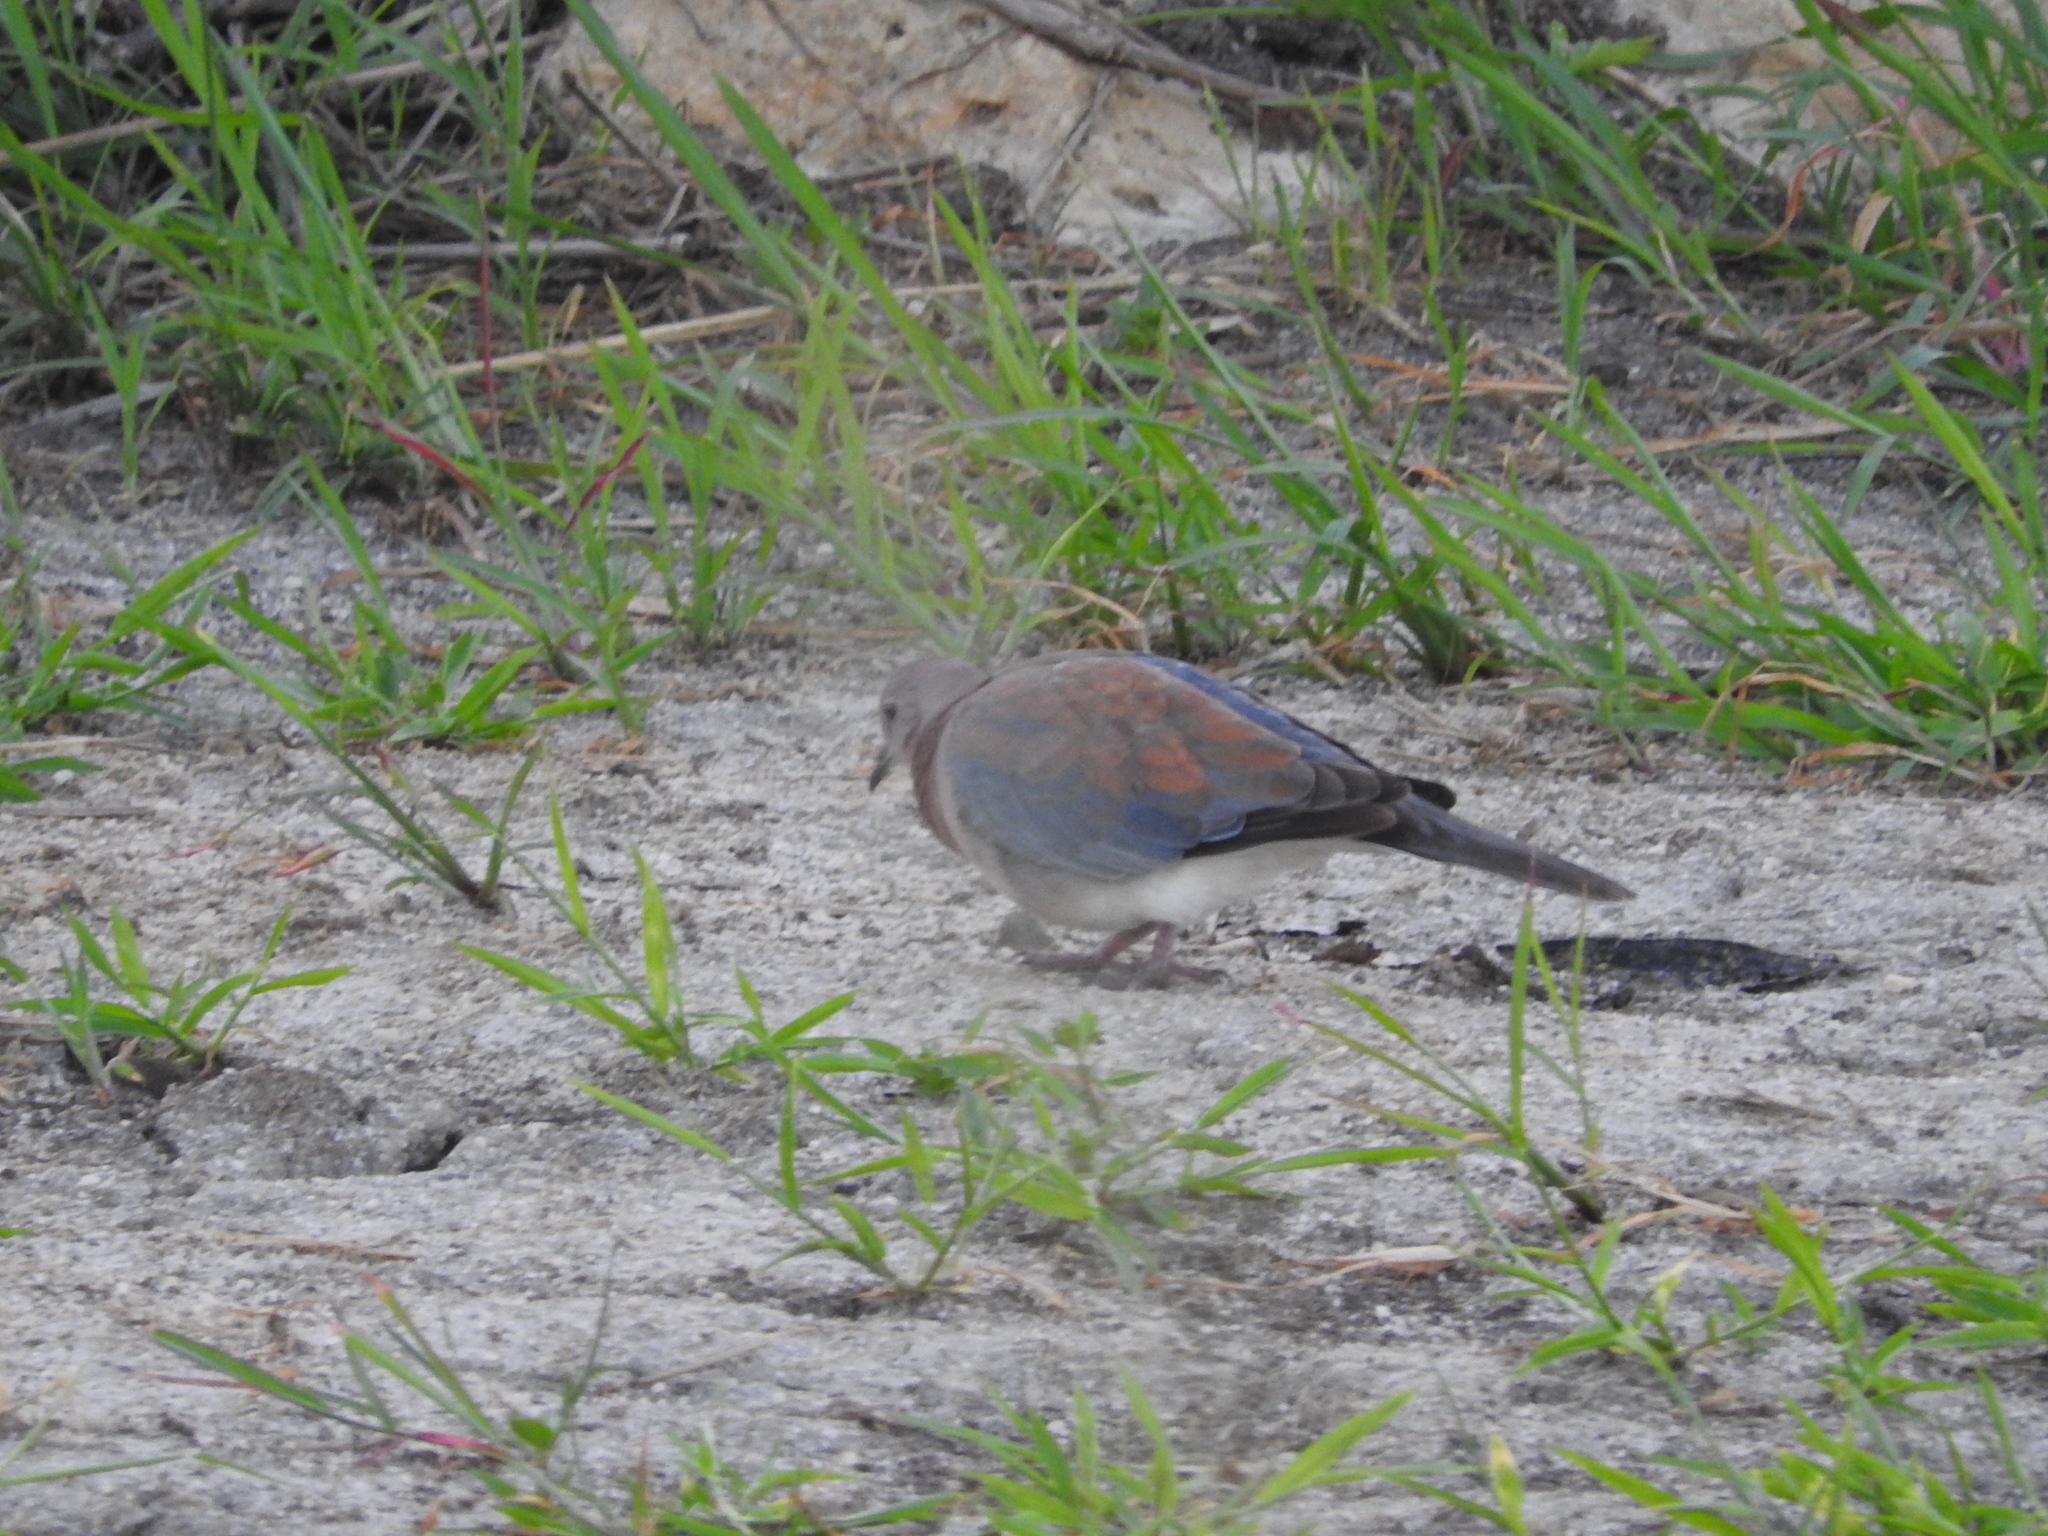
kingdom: Animalia
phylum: Chordata
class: Aves
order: Columbiformes
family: Columbidae
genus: Spilopelia
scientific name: Spilopelia senegalensis
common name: Laughing dove
